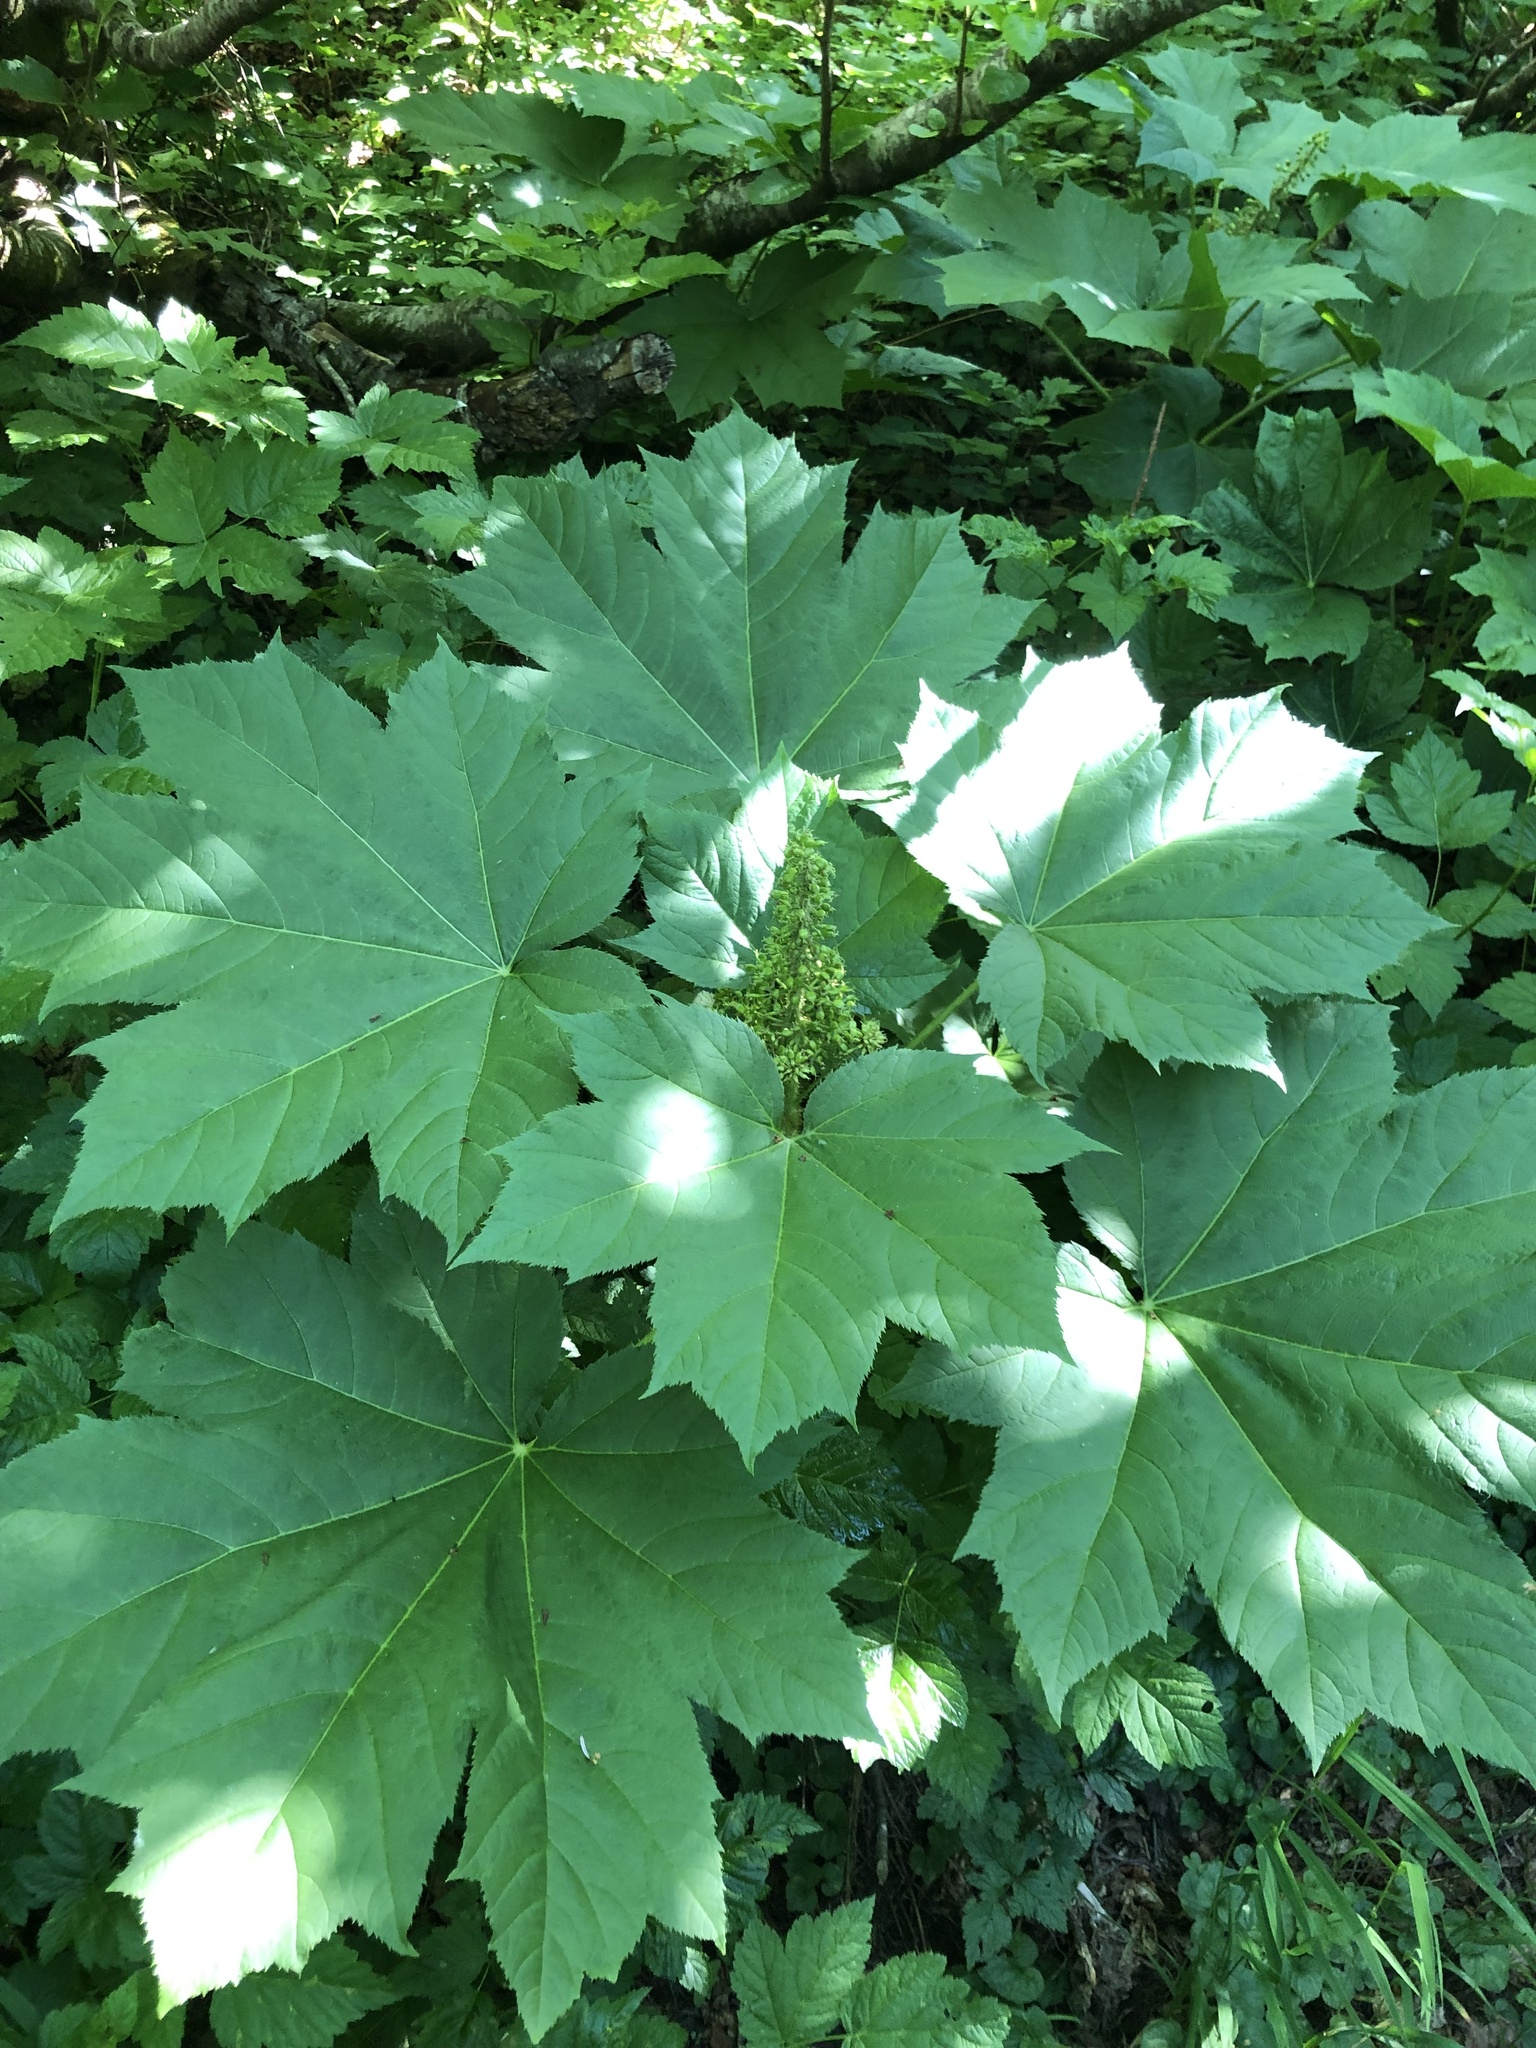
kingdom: Plantae
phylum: Tracheophyta
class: Magnoliopsida
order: Apiales
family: Araliaceae
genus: Oplopanax
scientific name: Oplopanax horridus
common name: Devil's walking-stick
